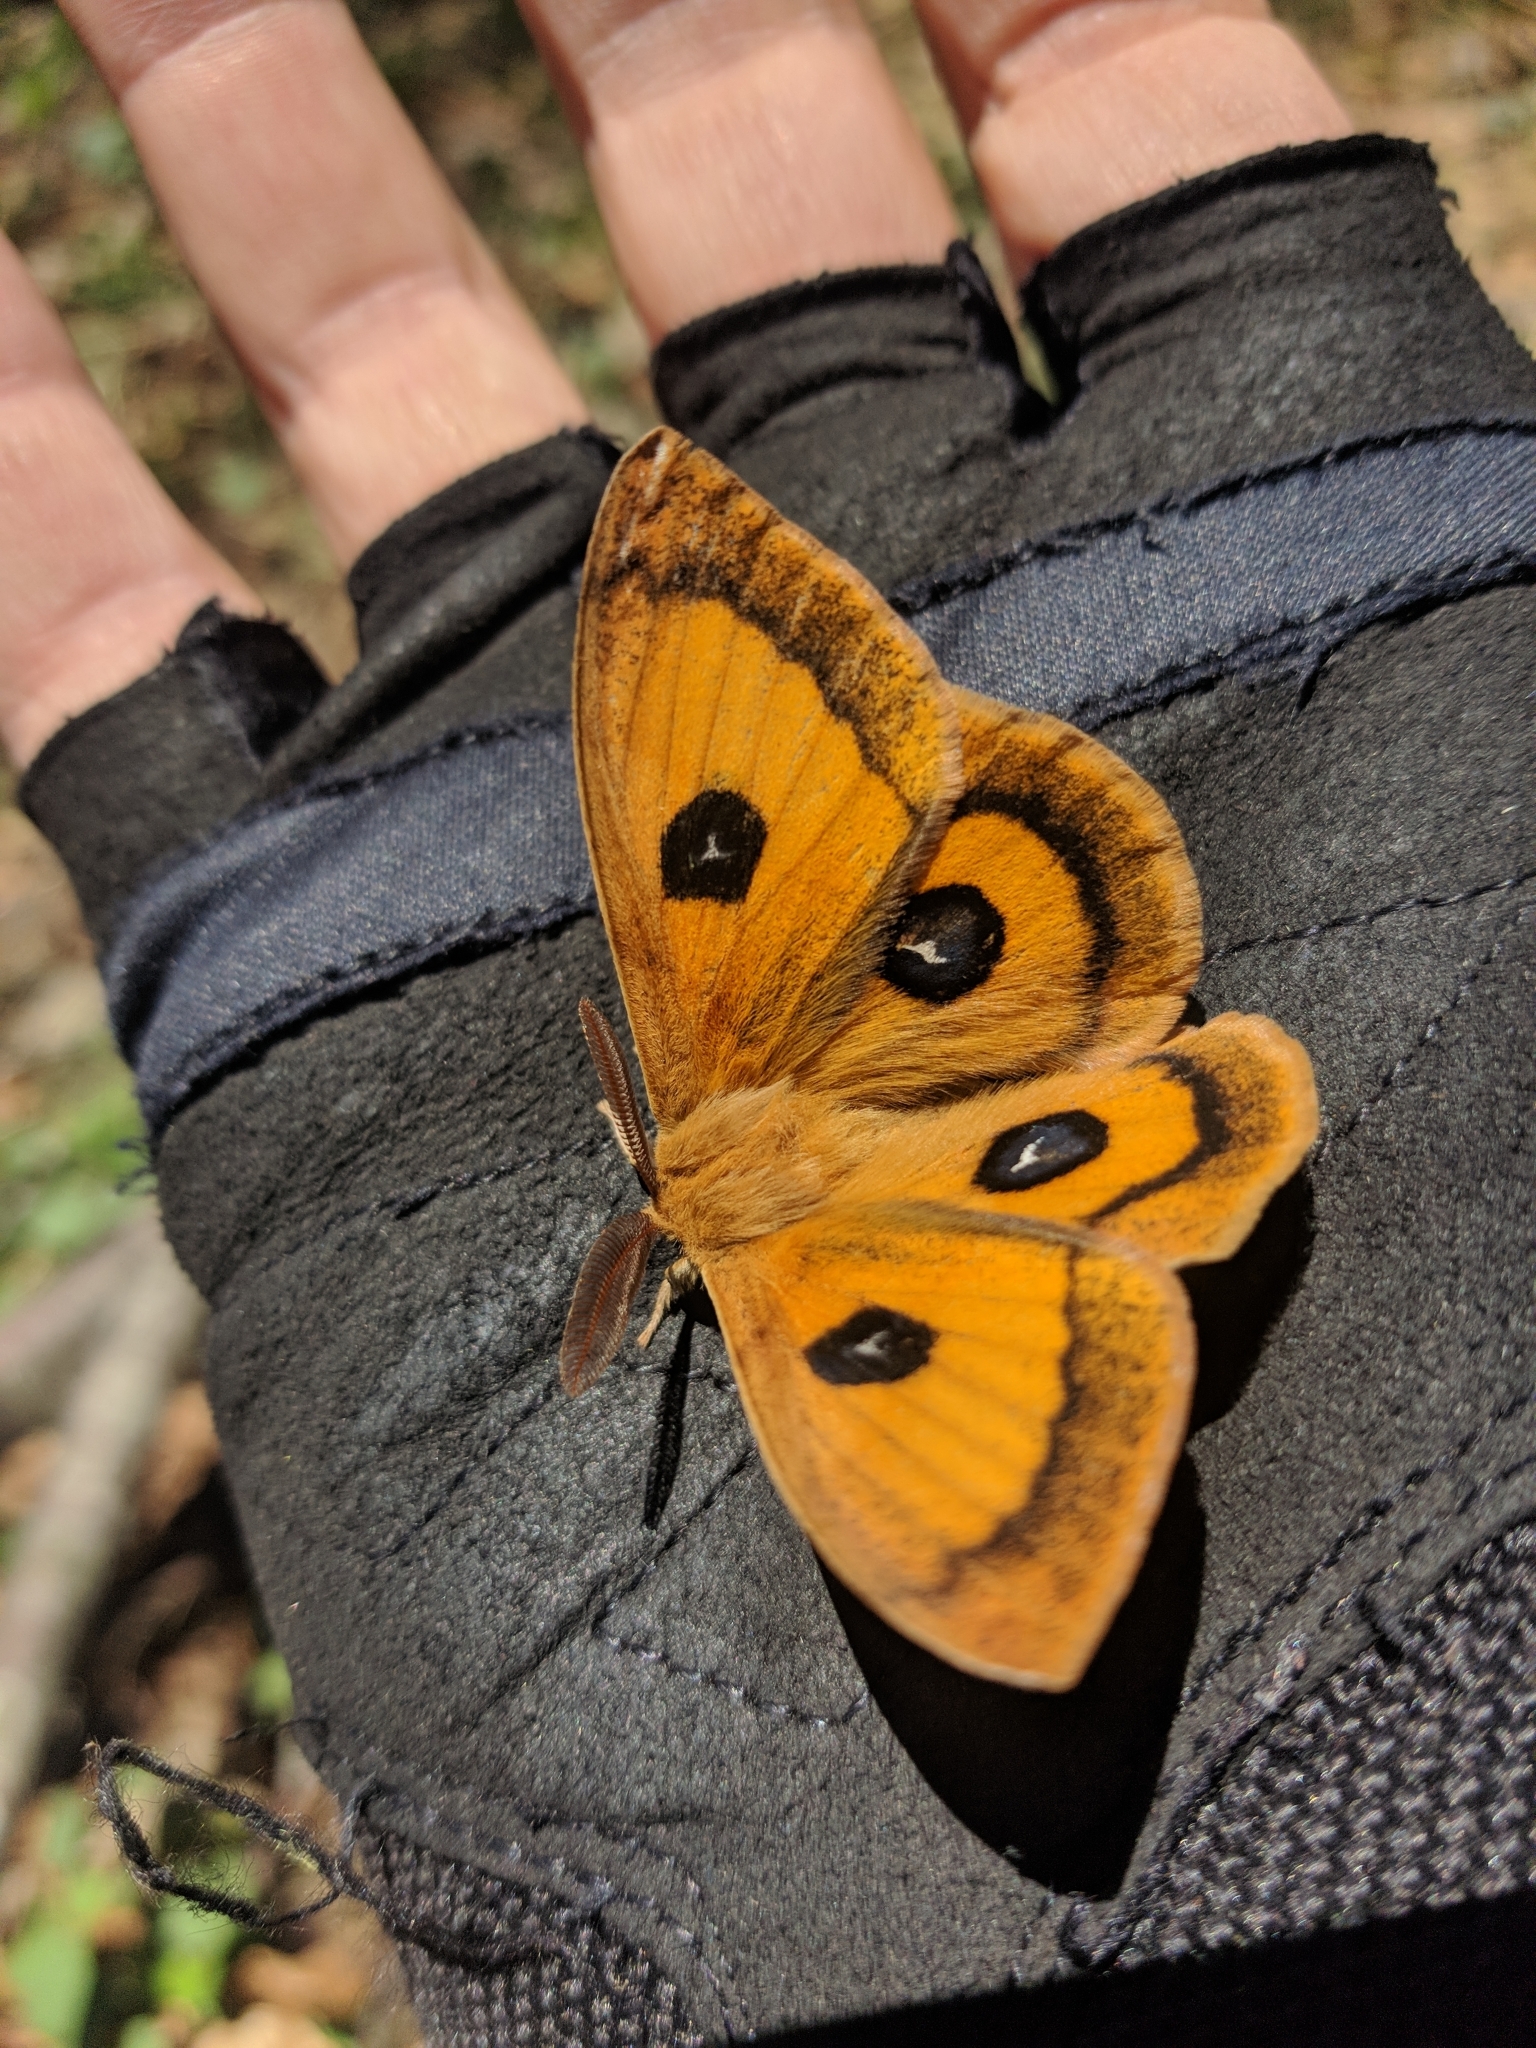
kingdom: Animalia
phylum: Arthropoda
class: Insecta
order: Lepidoptera
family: Saturniidae
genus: Aglia
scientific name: Aglia tau
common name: Tau emperor
